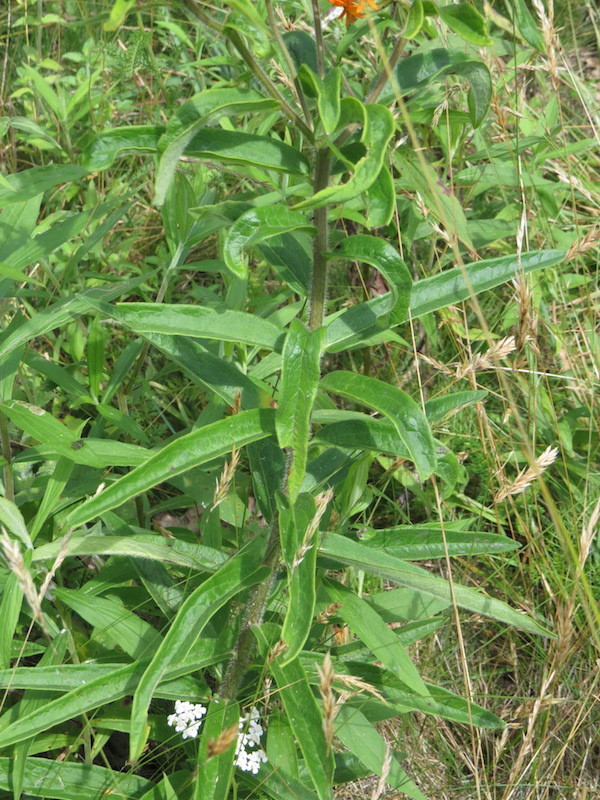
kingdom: Plantae
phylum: Tracheophyta
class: Magnoliopsida
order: Gentianales
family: Apocynaceae
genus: Asclepias
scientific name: Asclepias tuberosa
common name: Butterfly milkweed
